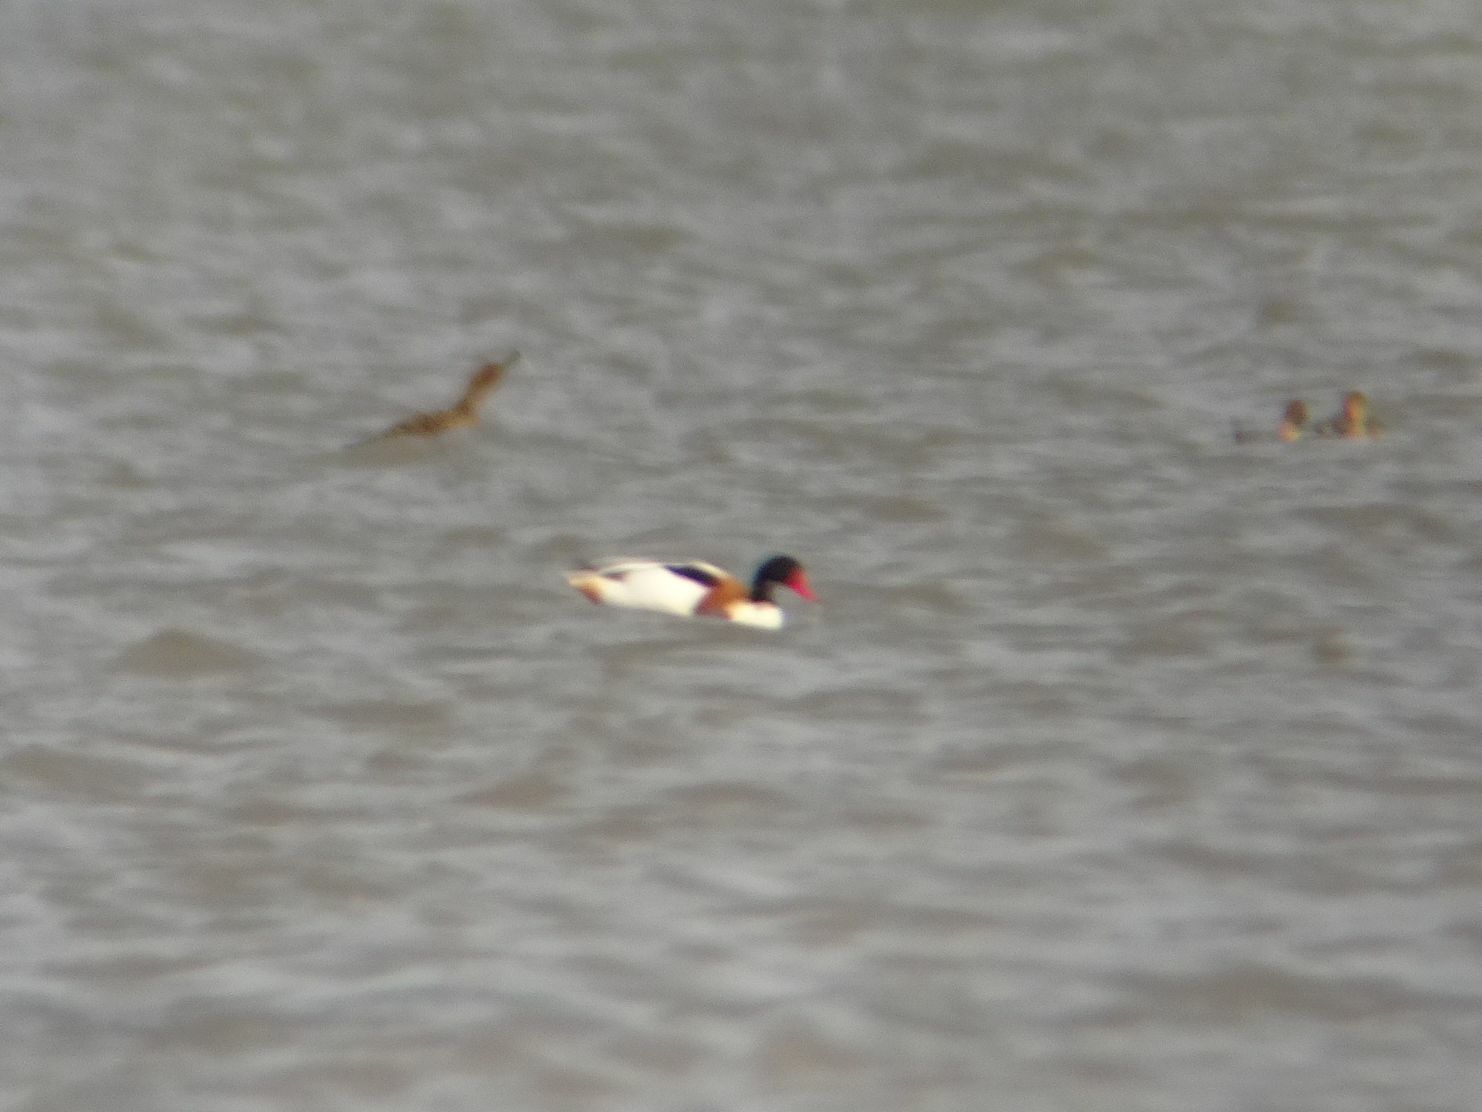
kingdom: Animalia
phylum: Chordata
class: Aves
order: Anseriformes
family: Anatidae
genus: Tadorna
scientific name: Tadorna tadorna
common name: Common shelduck
